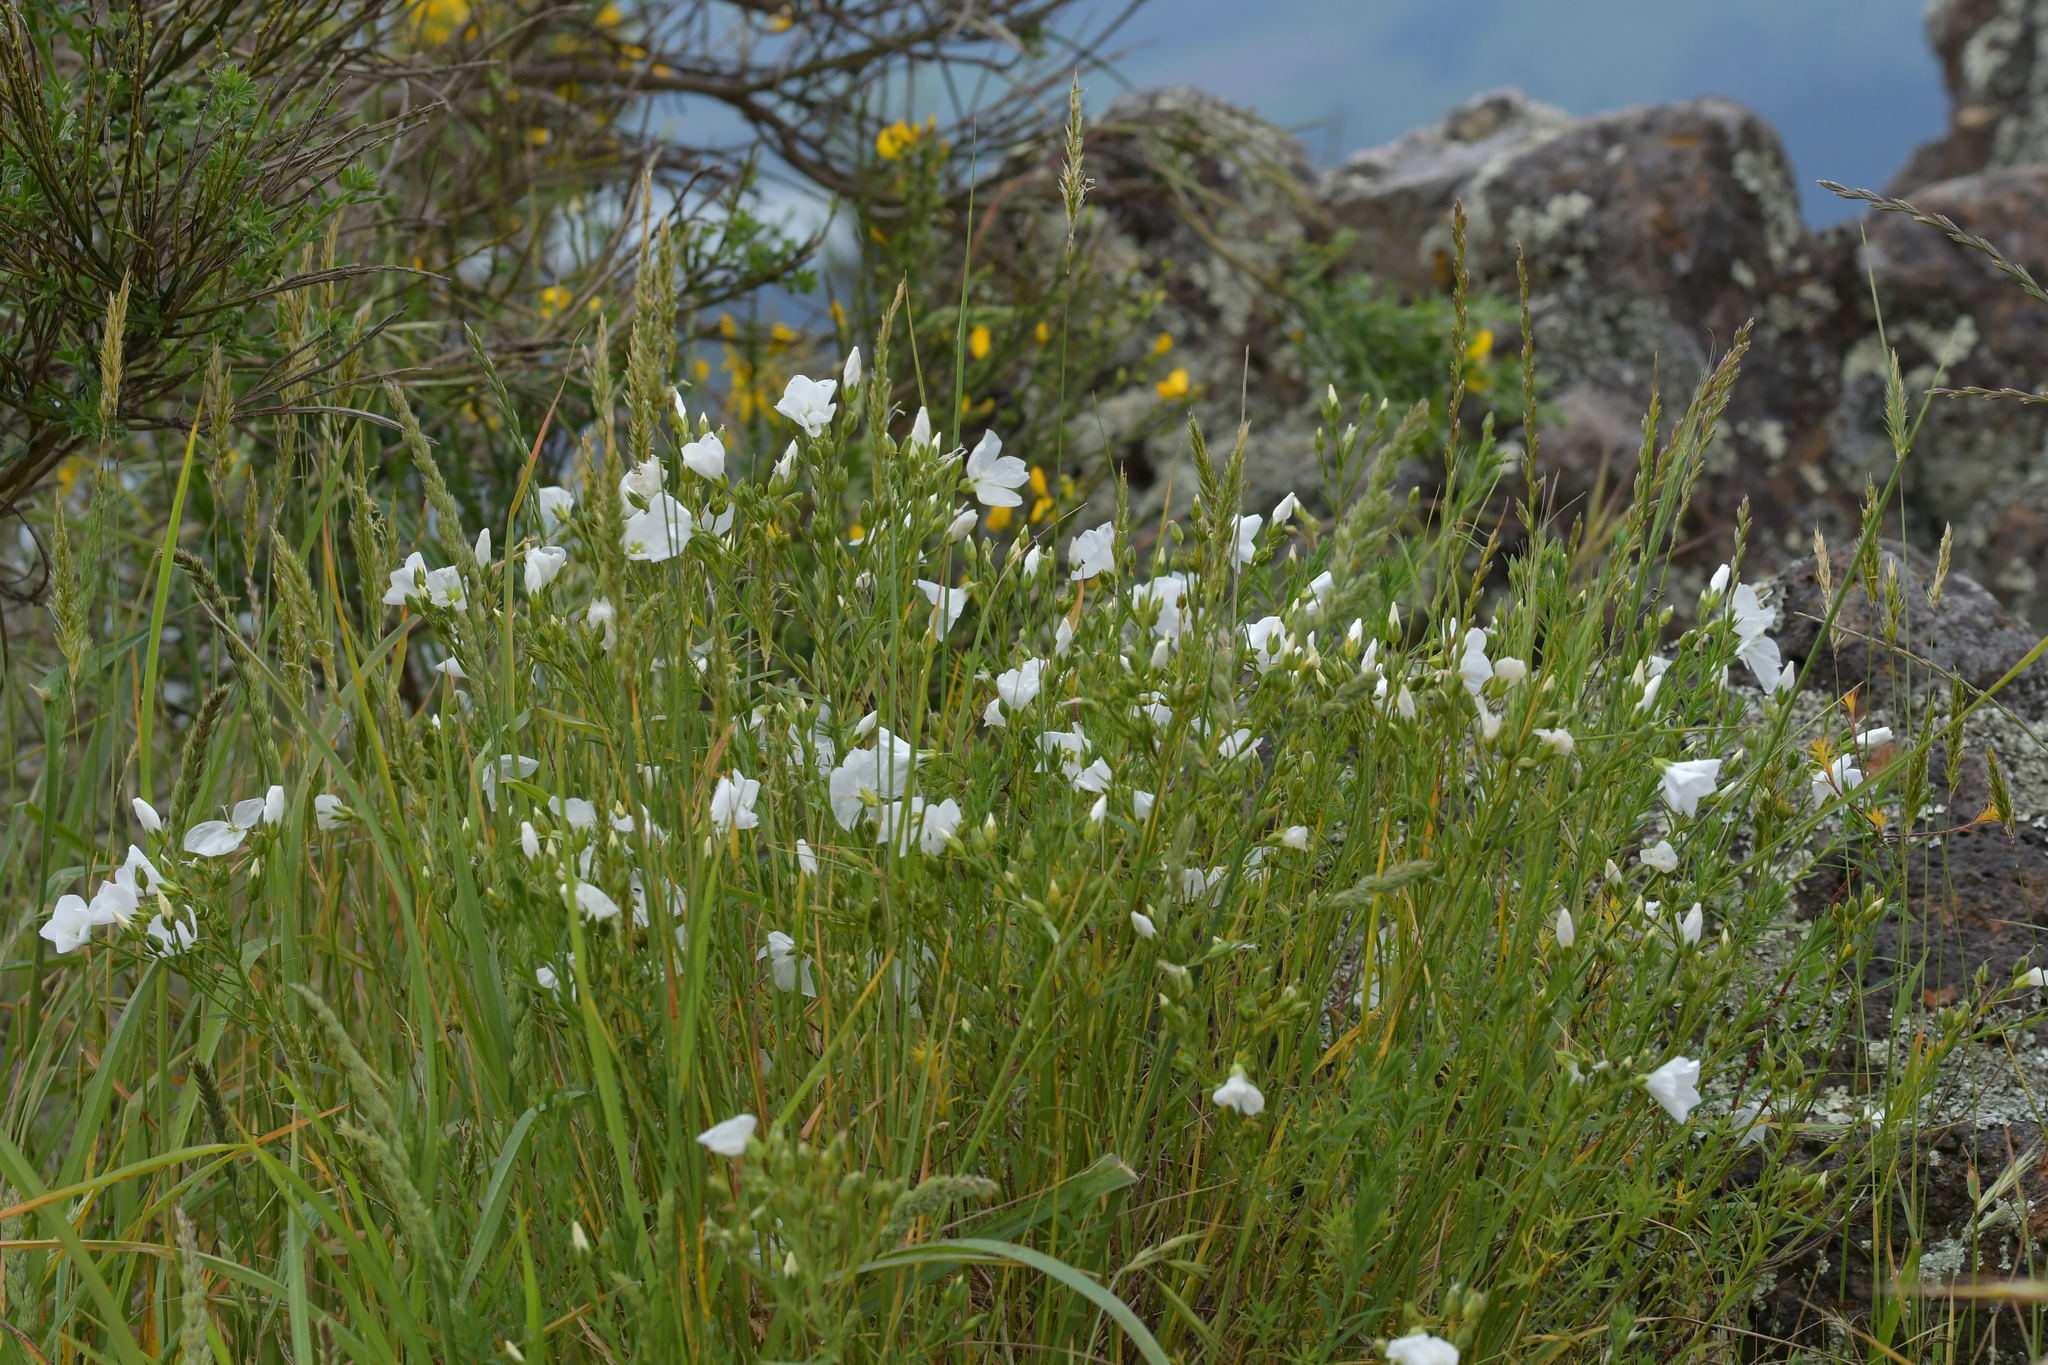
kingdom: Plantae
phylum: Tracheophyta
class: Magnoliopsida
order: Malpighiales
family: Linaceae
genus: Linum
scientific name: Linum monogynum
